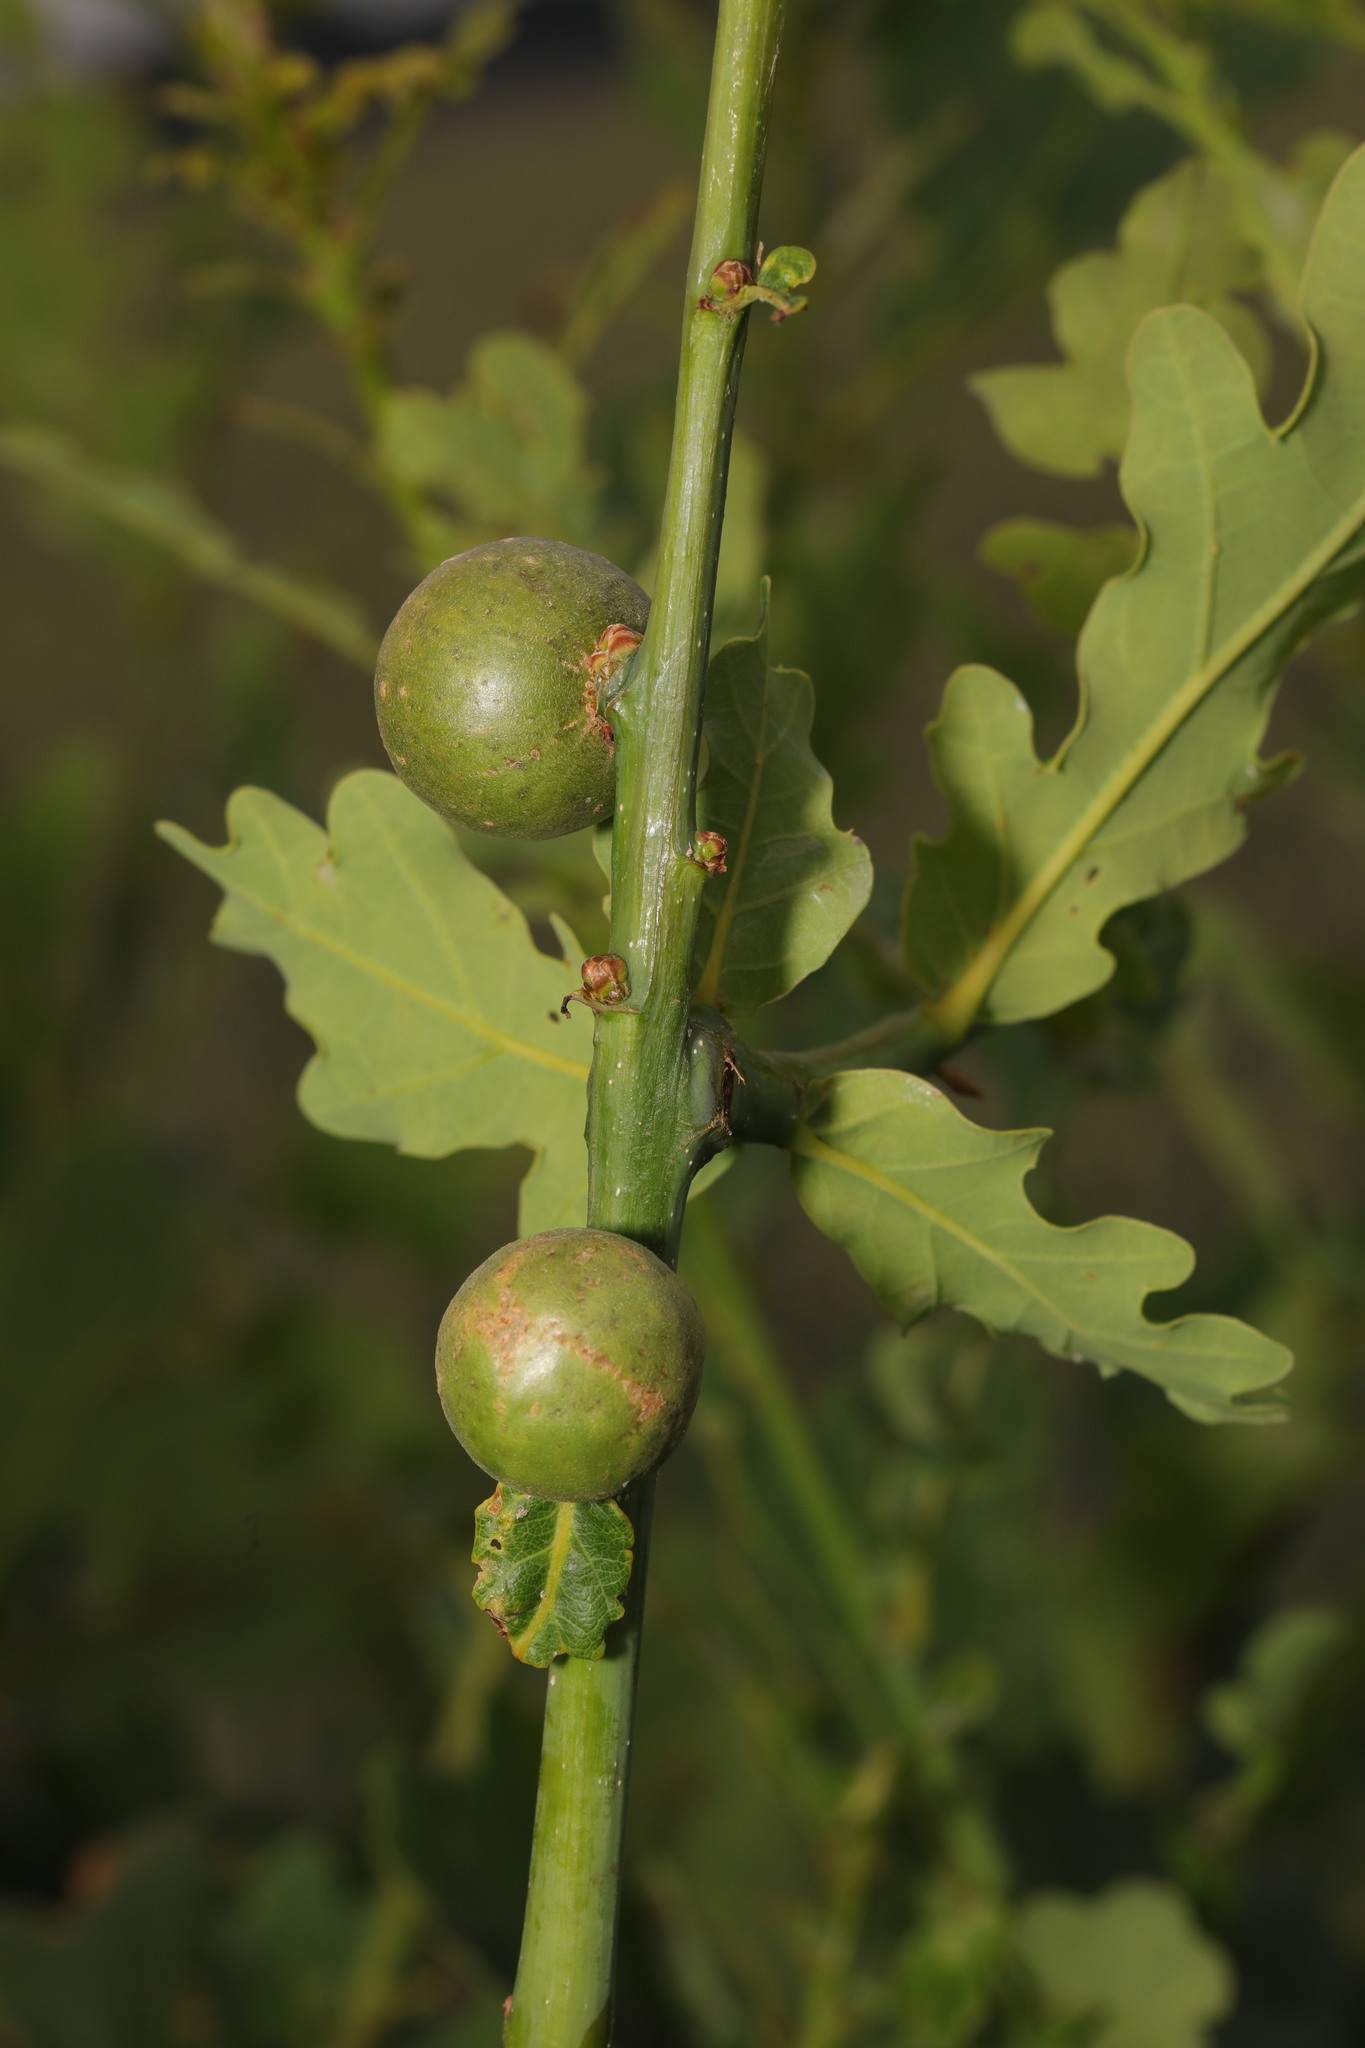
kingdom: Animalia
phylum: Arthropoda
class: Insecta
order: Hymenoptera
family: Cynipidae
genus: Andricus
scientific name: Andricus kollari
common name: Marble gall
